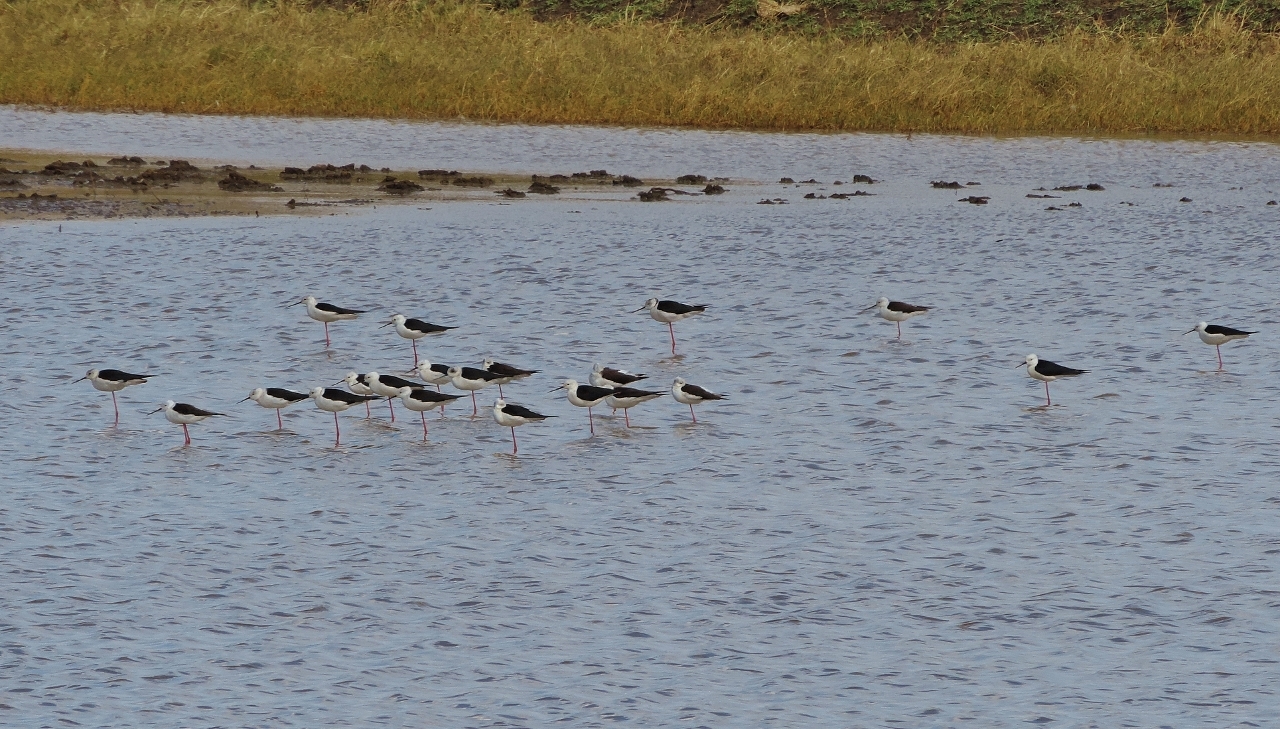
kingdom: Animalia
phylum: Chordata
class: Aves
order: Charadriiformes
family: Recurvirostridae
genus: Himantopus
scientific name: Himantopus himantopus
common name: Black-winged stilt
